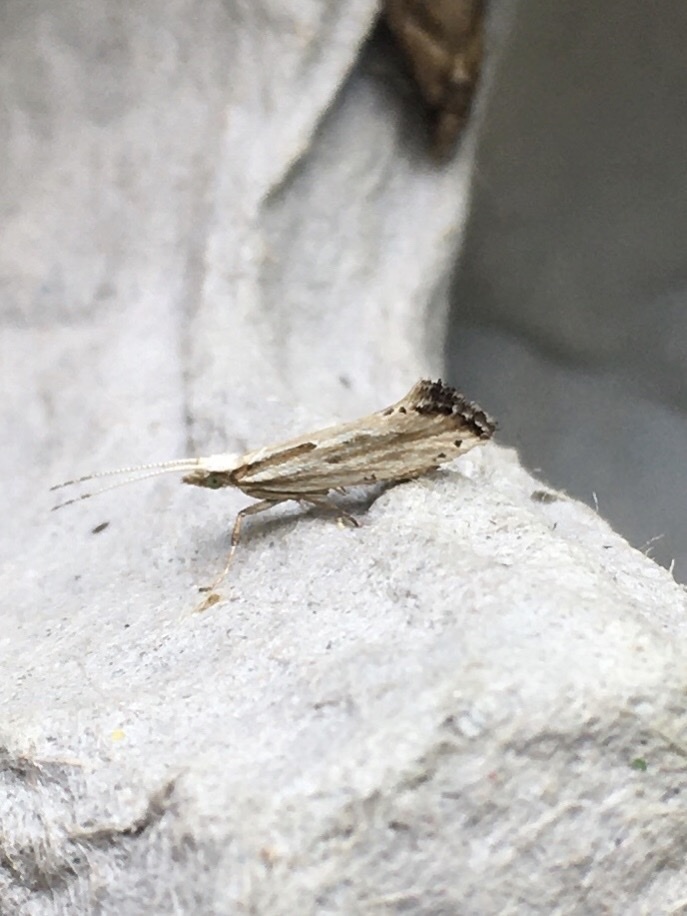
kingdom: Animalia
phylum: Arthropoda
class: Insecta
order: Lepidoptera
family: Plutellidae
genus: Plutella
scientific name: Plutella porrectella
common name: Dame's rocket moth
